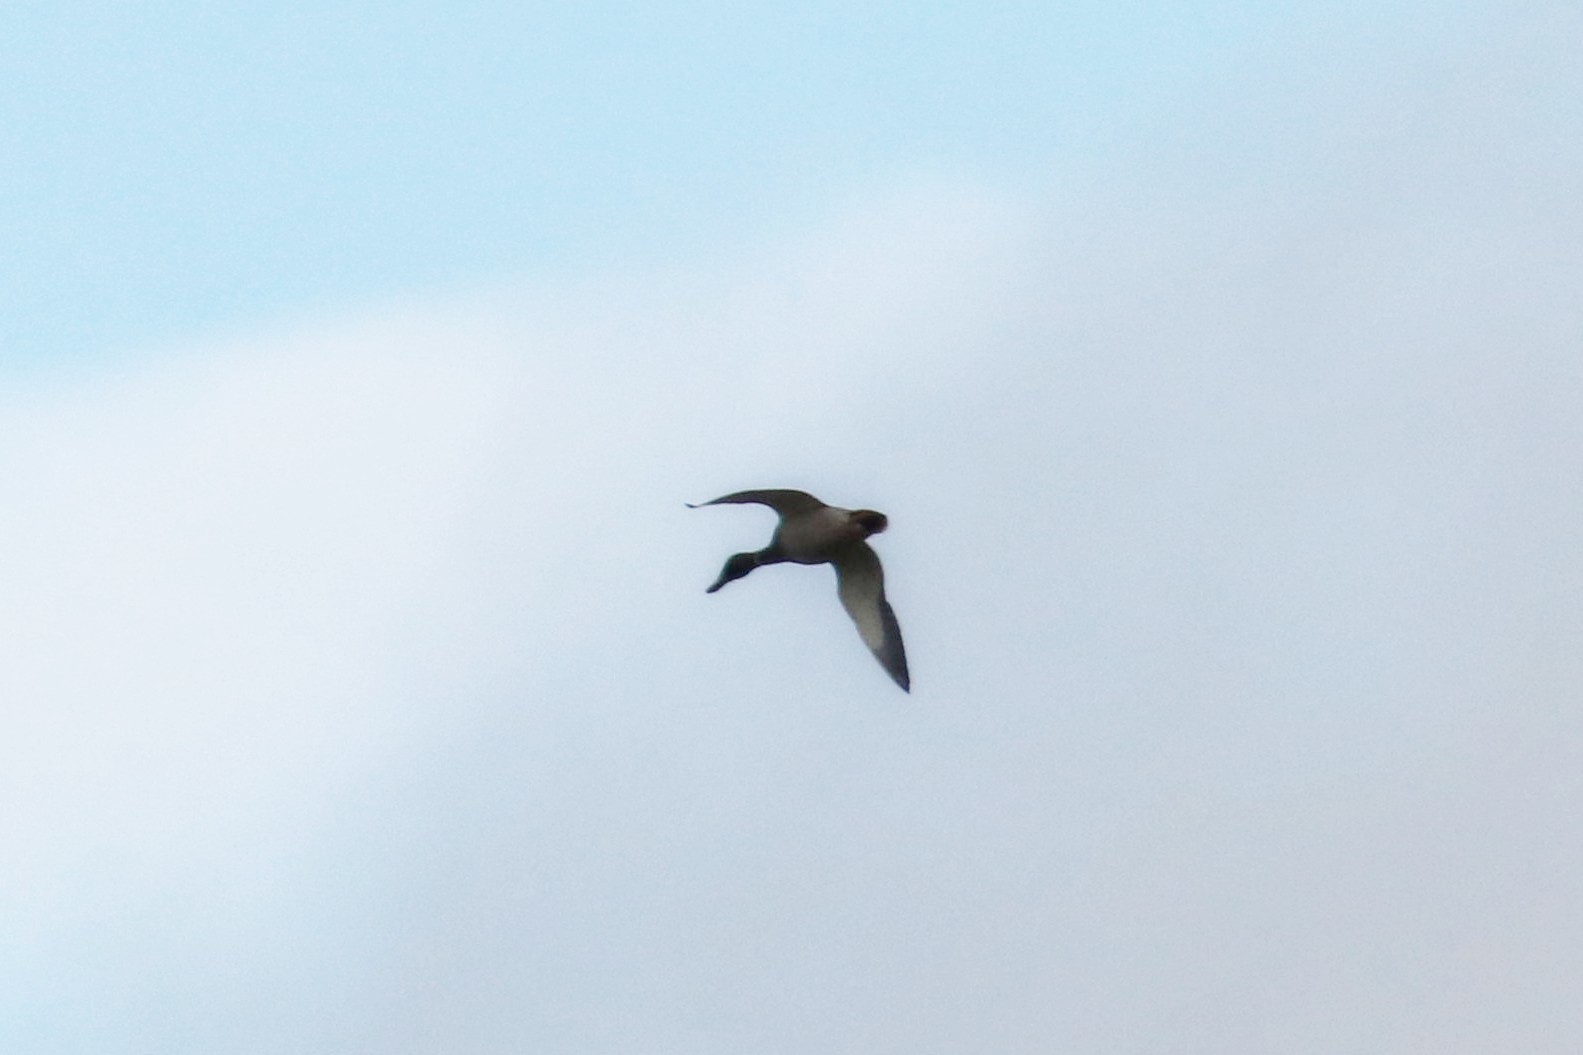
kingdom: Animalia
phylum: Chordata
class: Aves
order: Anseriformes
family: Anatidae
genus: Anas
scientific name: Anas platyrhynchos
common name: Mallard
